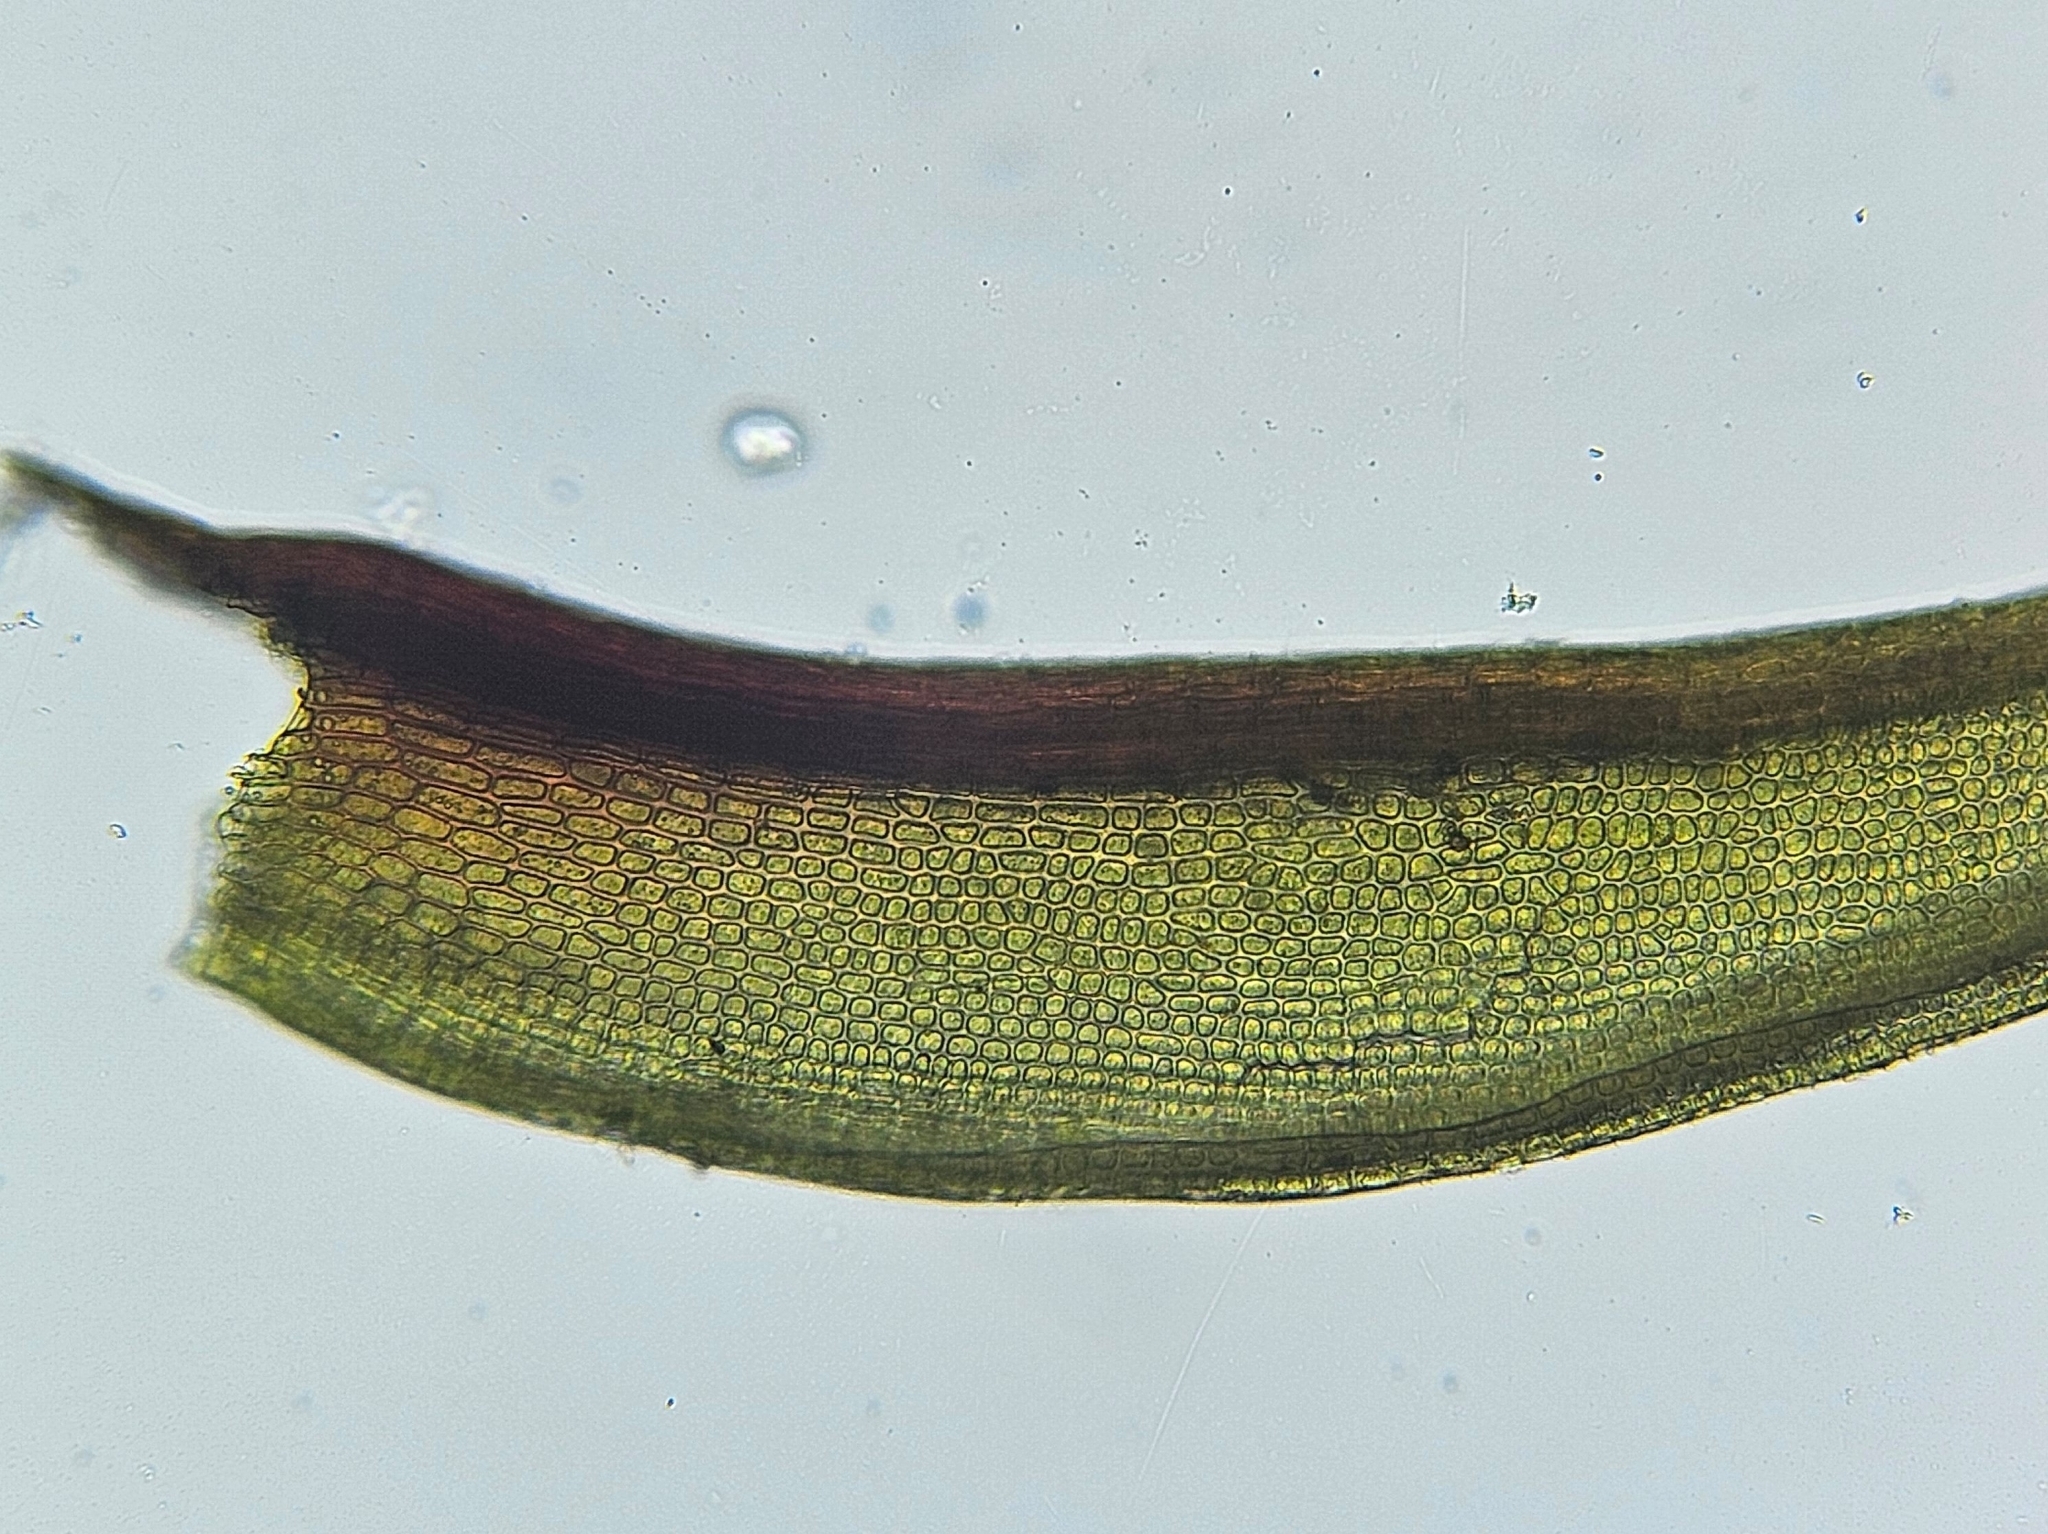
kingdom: Plantae
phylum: Bryophyta
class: Bryopsida
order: Dicranales
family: Ditrichaceae
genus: Ceratodon
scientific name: Ceratodon purpureus
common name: Redshank
